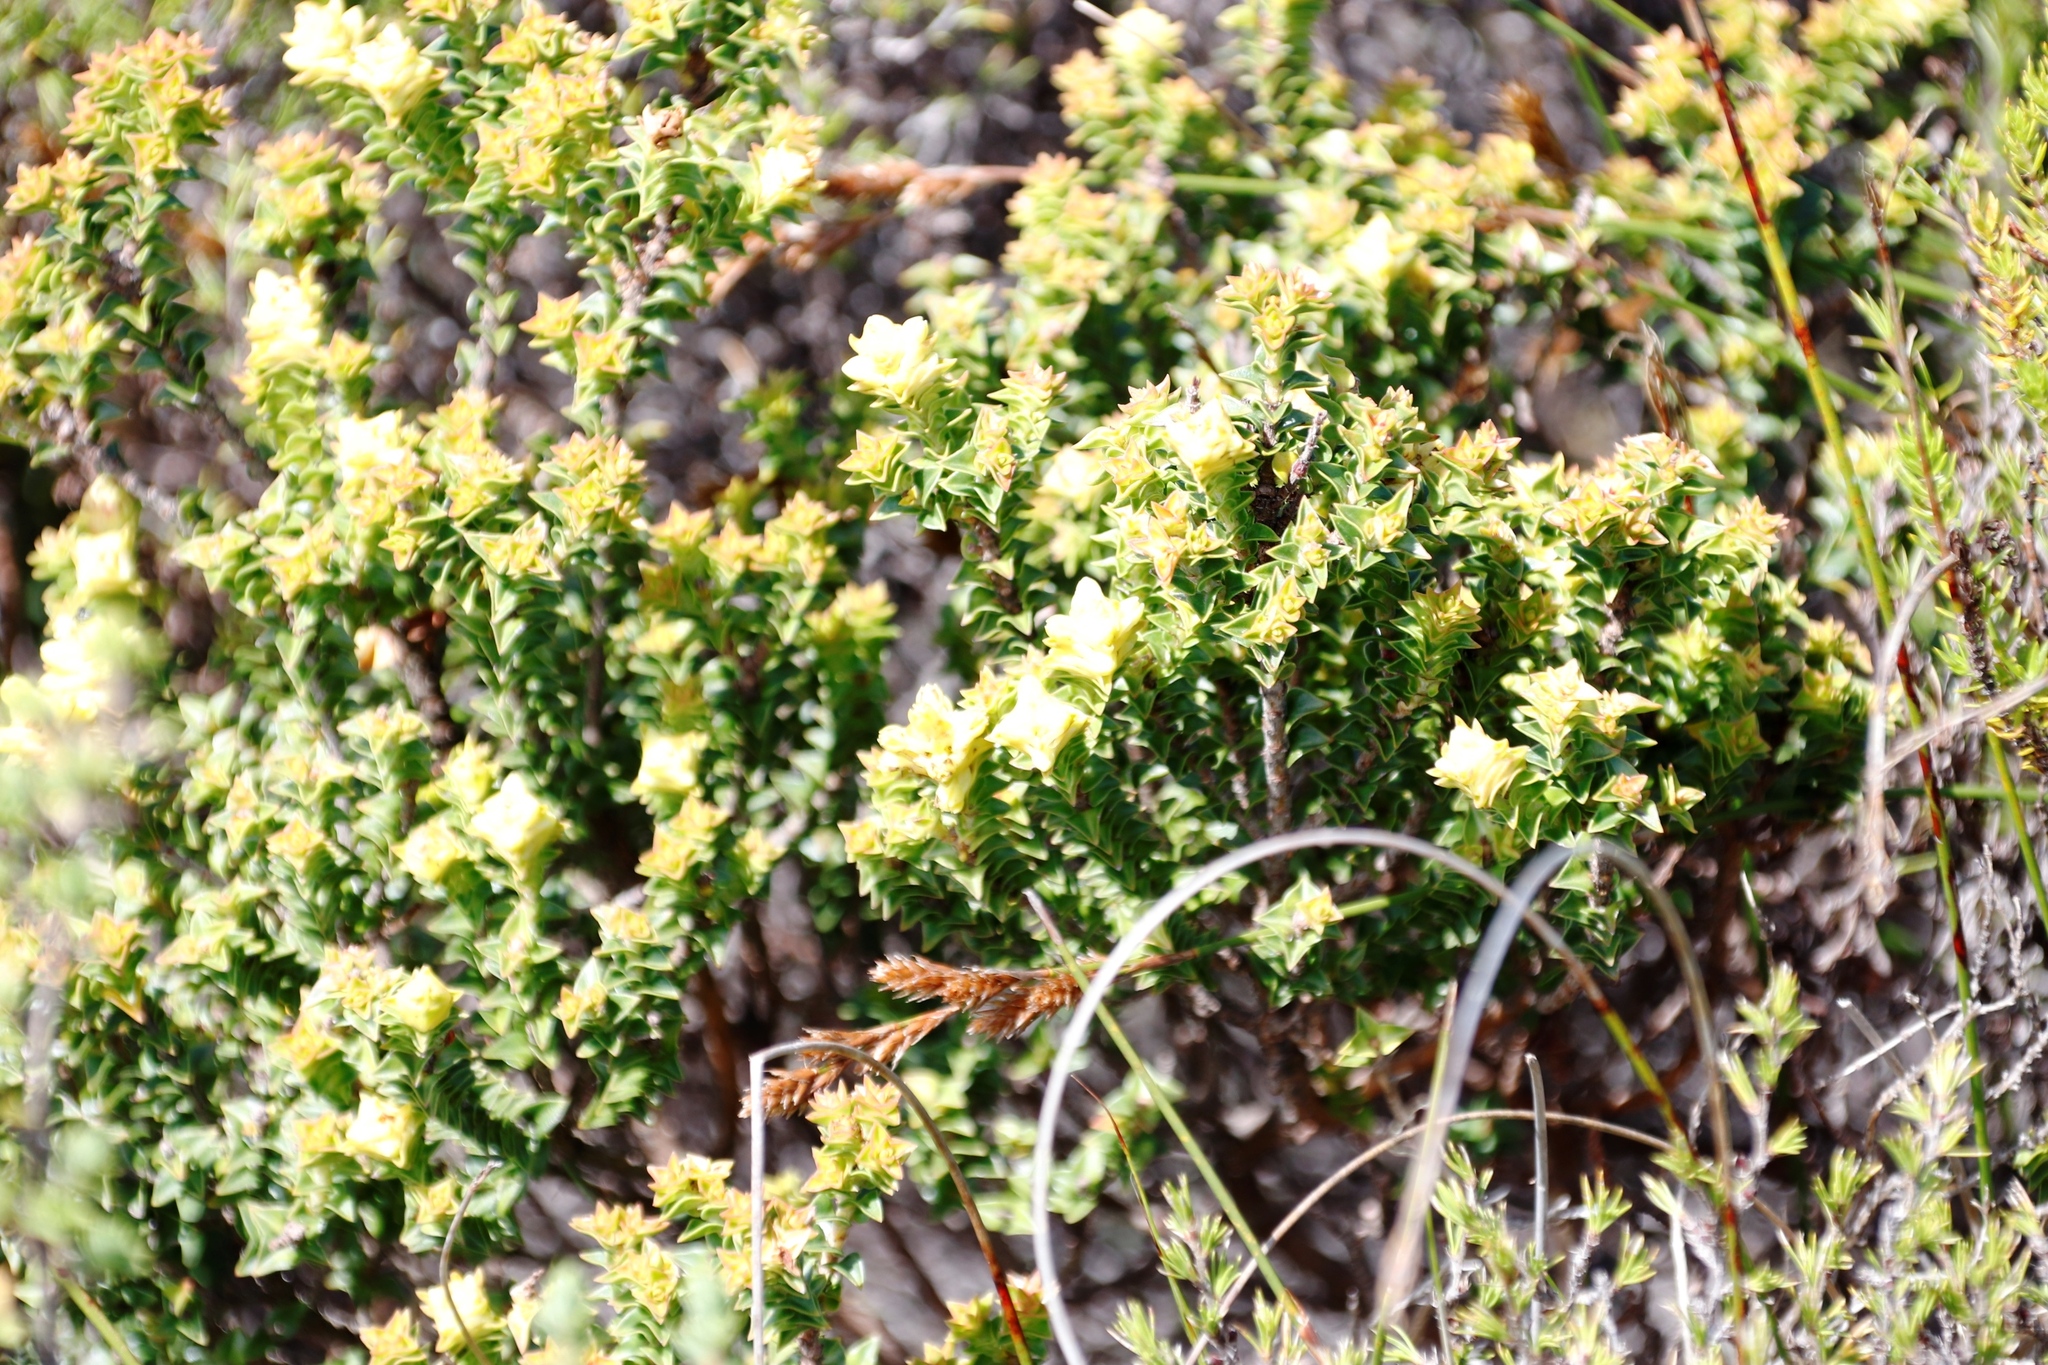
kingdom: Plantae
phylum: Tracheophyta
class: Magnoliopsida
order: Myrtales
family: Penaeaceae
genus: Penaea
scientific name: Penaea mucronata
